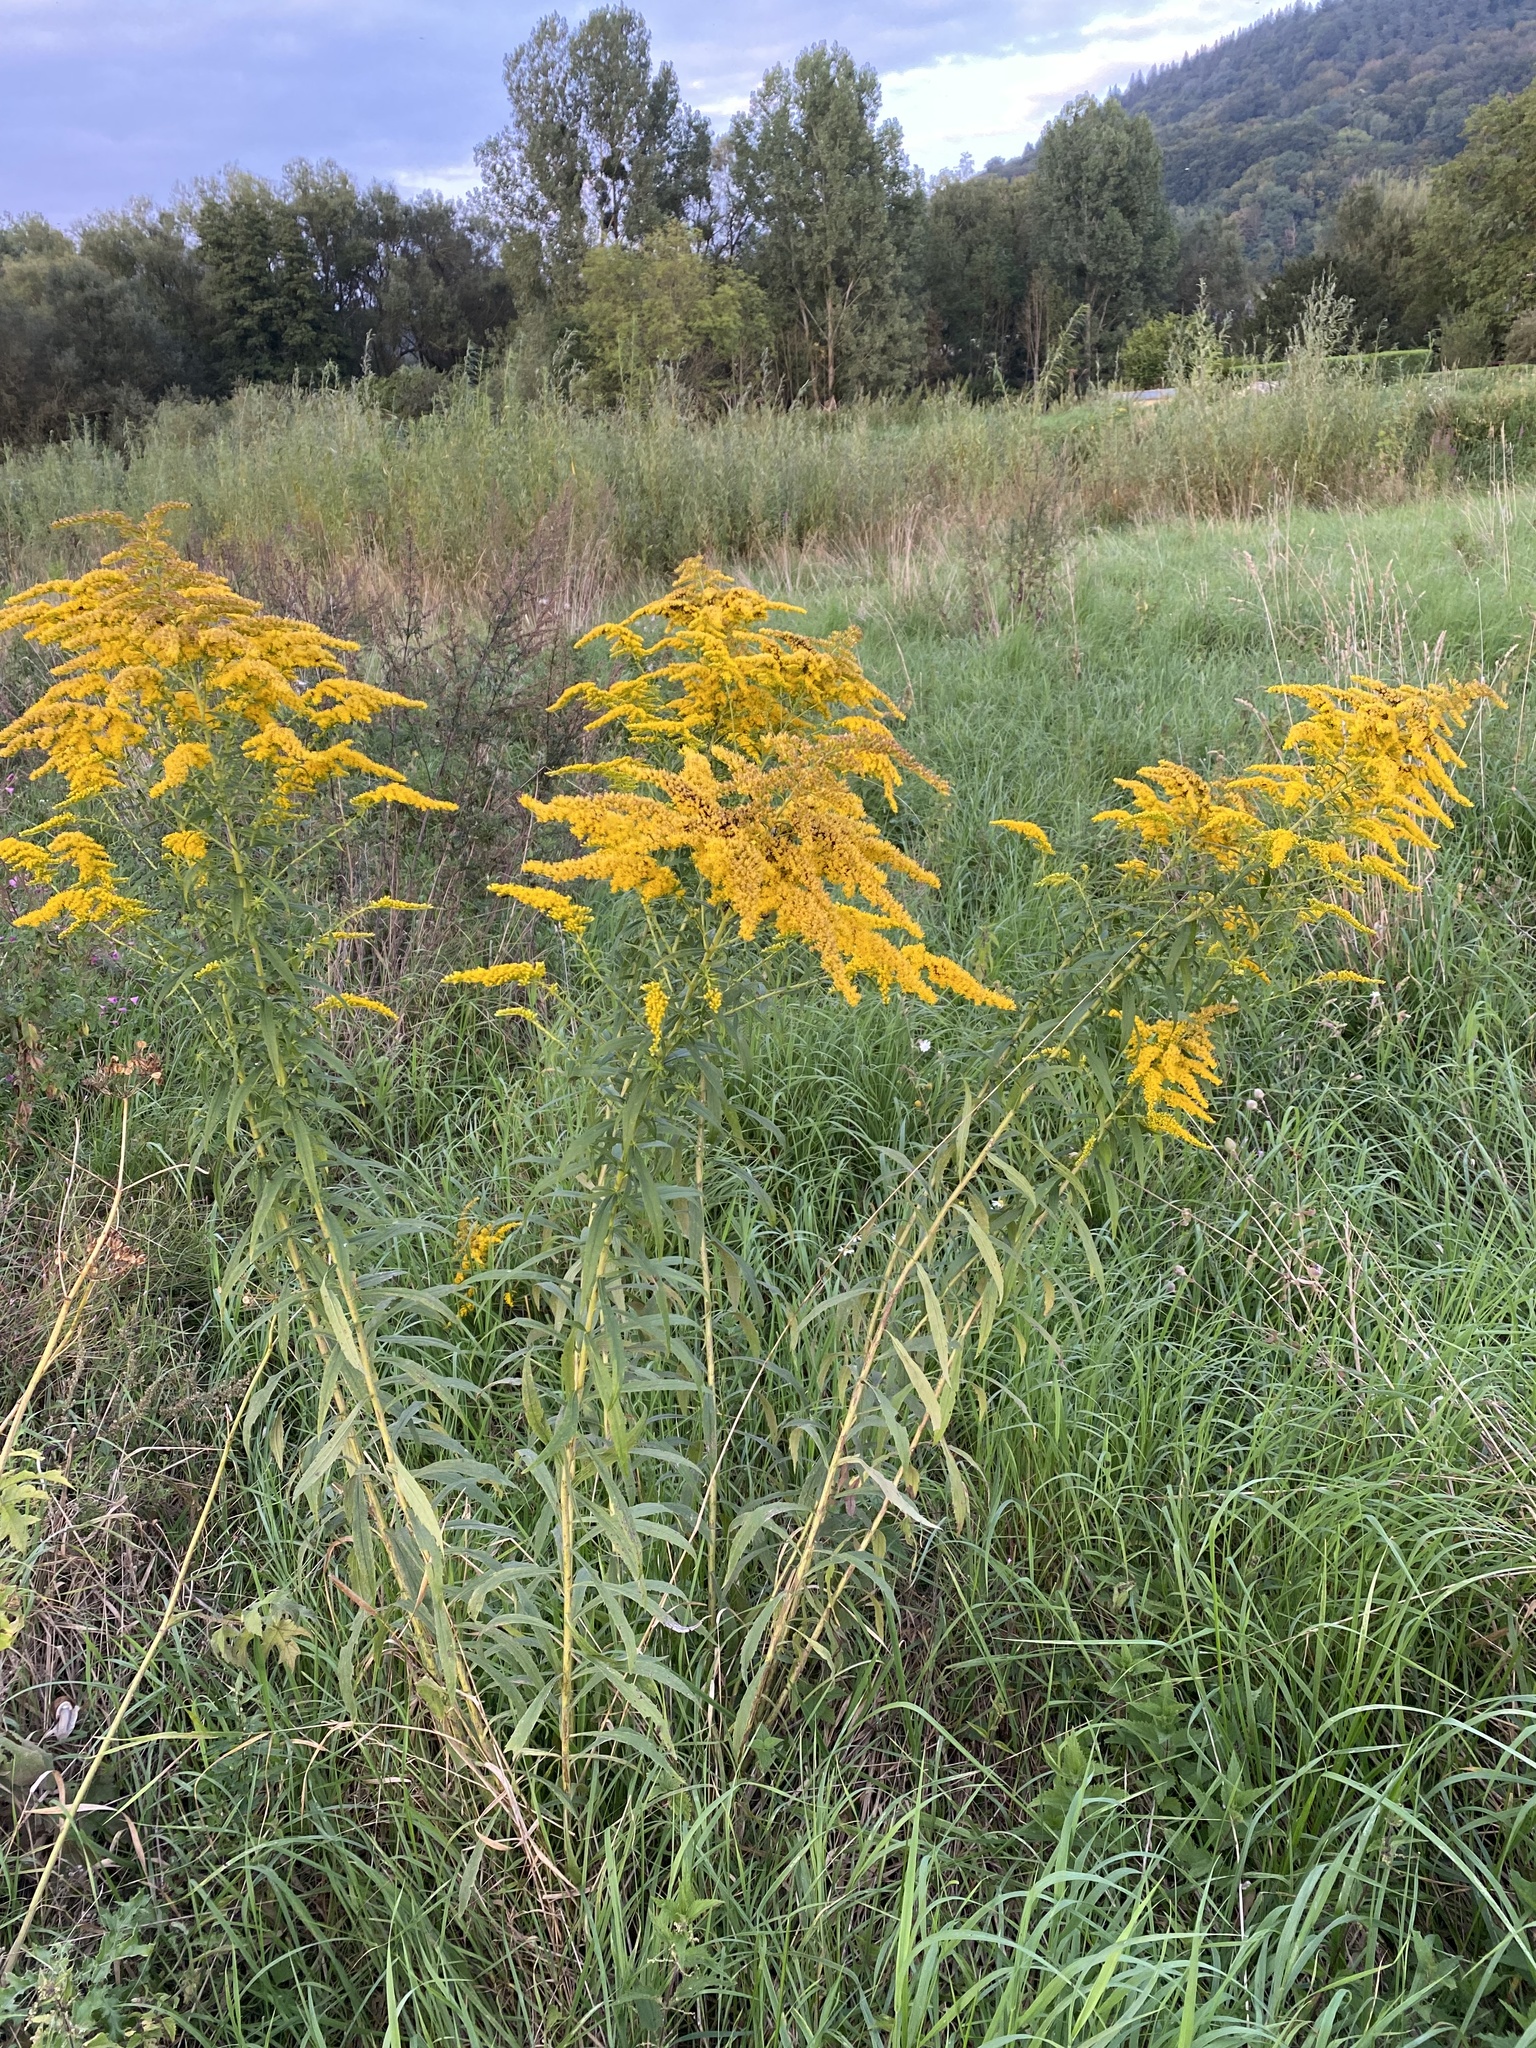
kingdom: Plantae
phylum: Tracheophyta
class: Magnoliopsida
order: Asterales
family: Asteraceae
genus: Solidago
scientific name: Solidago gigantea
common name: Giant goldenrod
